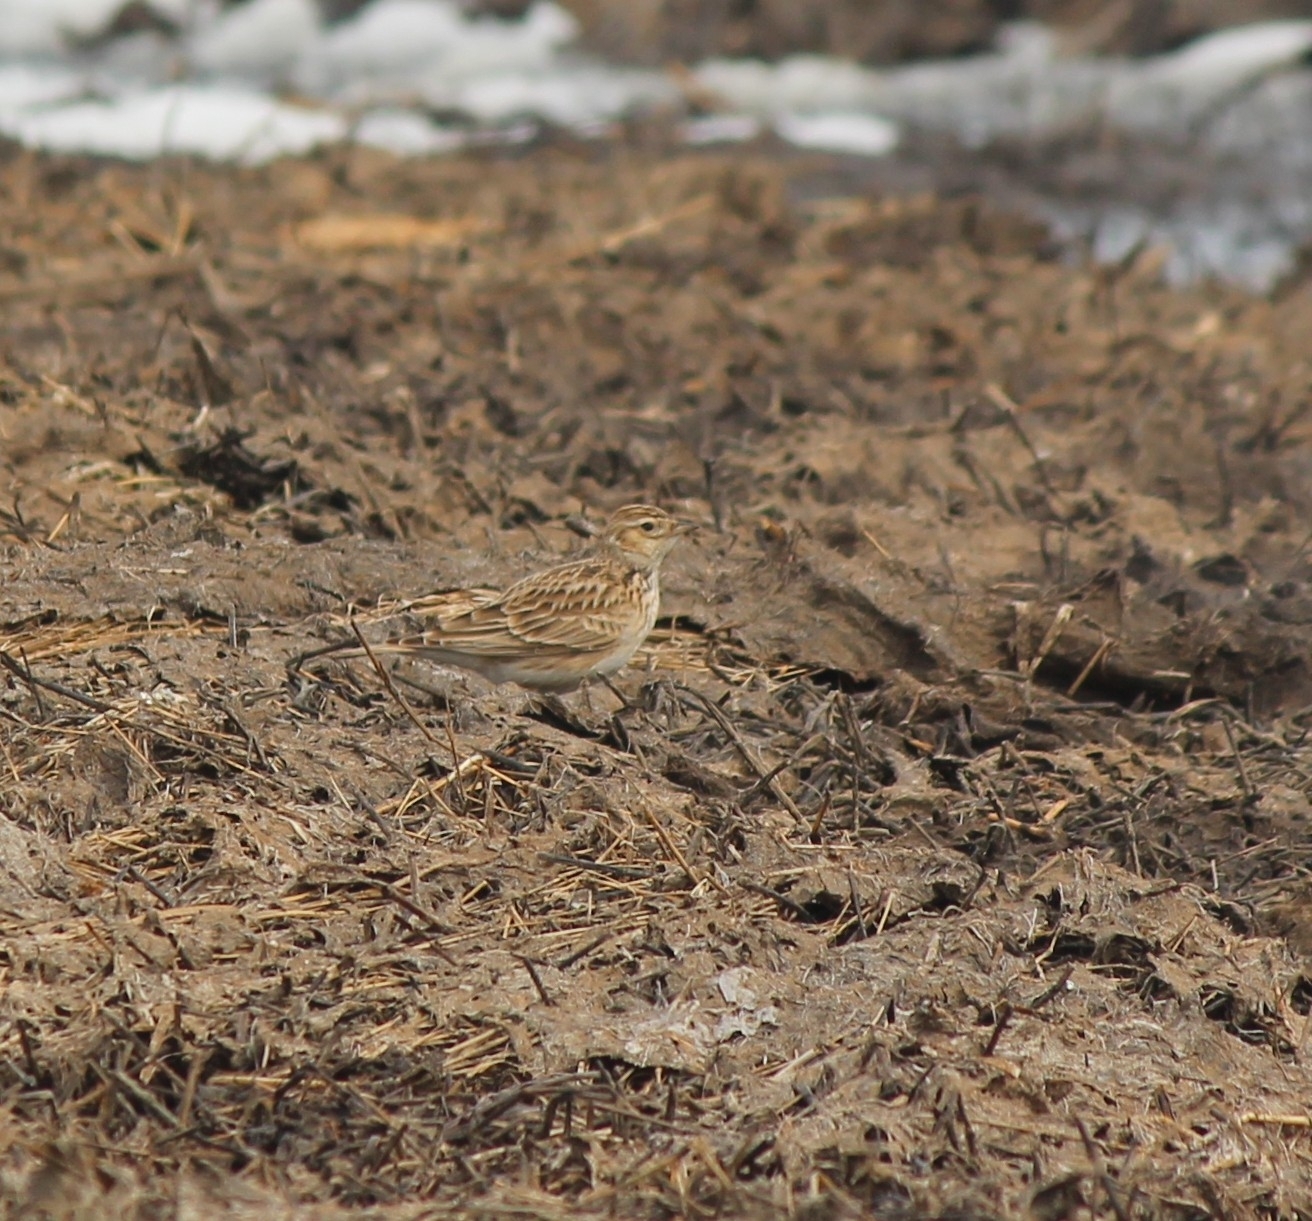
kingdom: Animalia
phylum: Chordata
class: Aves
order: Passeriformes
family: Alaudidae
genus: Alauda
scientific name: Alauda arvensis
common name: Eurasian skylark
